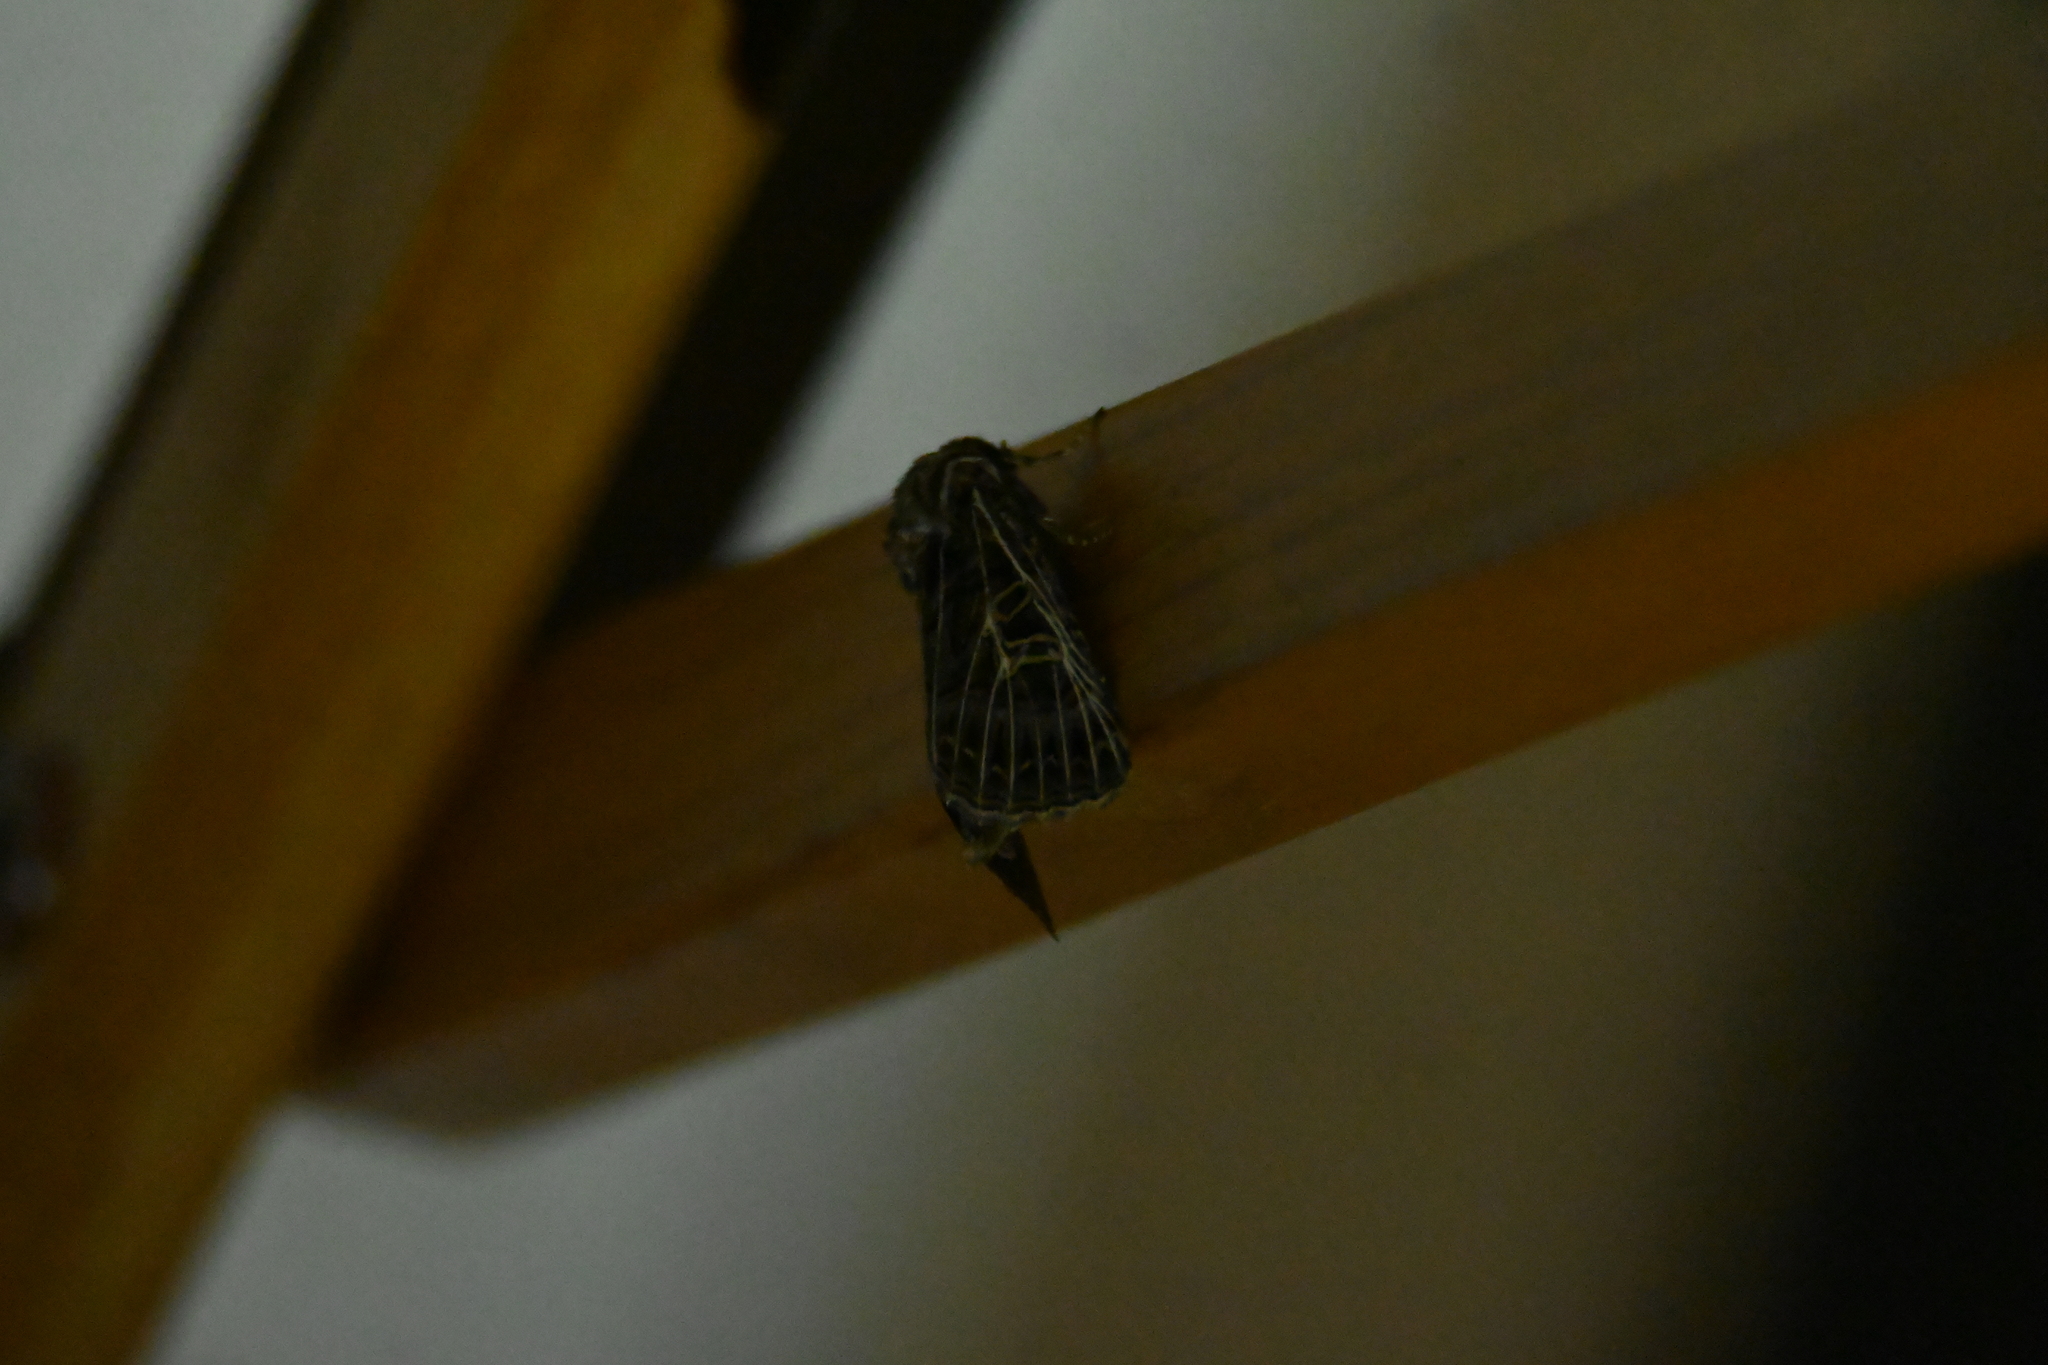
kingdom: Animalia
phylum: Arthropoda
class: Insecta
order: Lepidoptera
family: Noctuidae
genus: Tholera
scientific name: Tholera decimalis
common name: Feathered gothic
